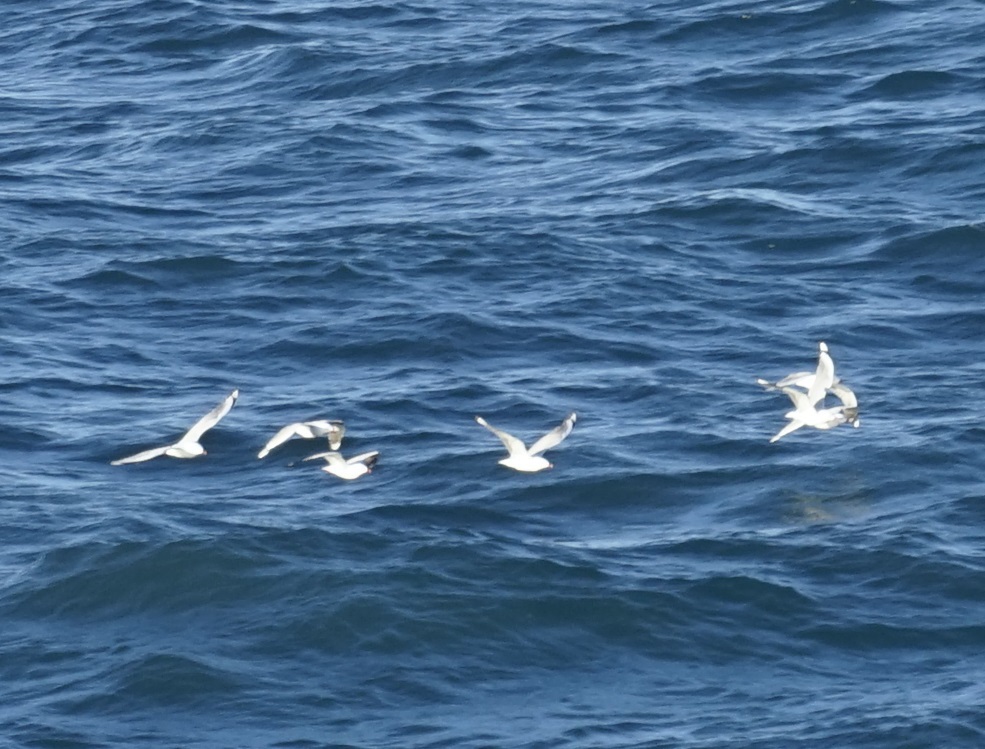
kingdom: Animalia
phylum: Chordata
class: Aves
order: Charadriiformes
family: Laridae
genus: Chroicocephalus
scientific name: Chroicocephalus novaehollandiae
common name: Silver gull
